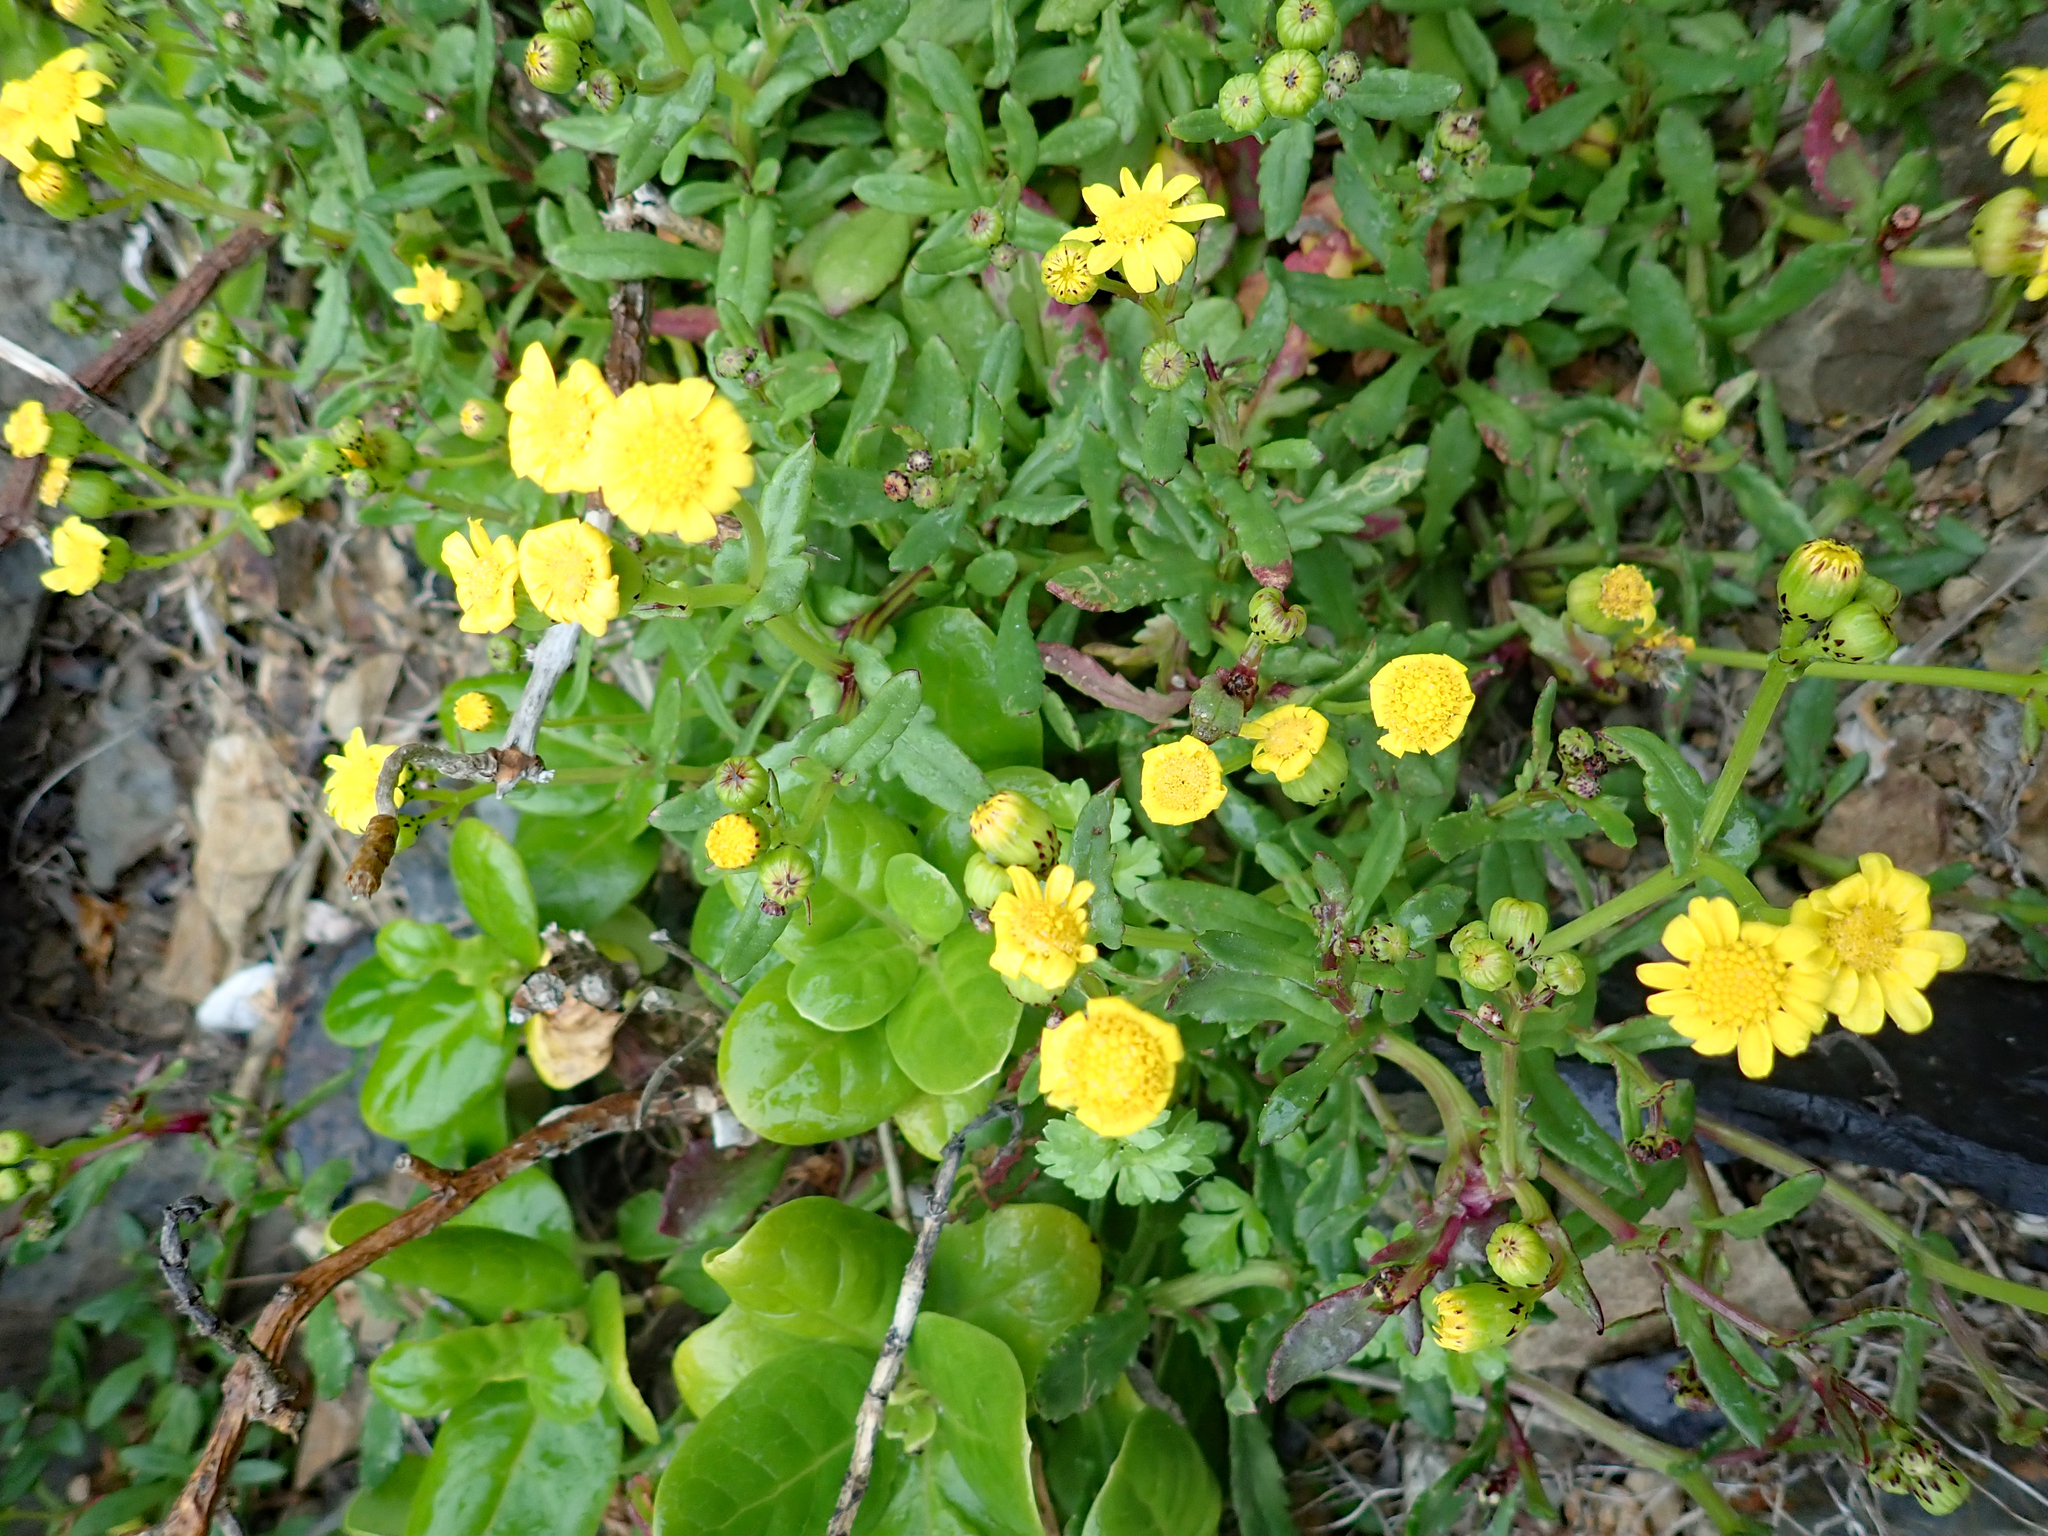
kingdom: Plantae
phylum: Tracheophyta
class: Magnoliopsida
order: Asterales
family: Asteraceae
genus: Senecio
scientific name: Senecio lautus
